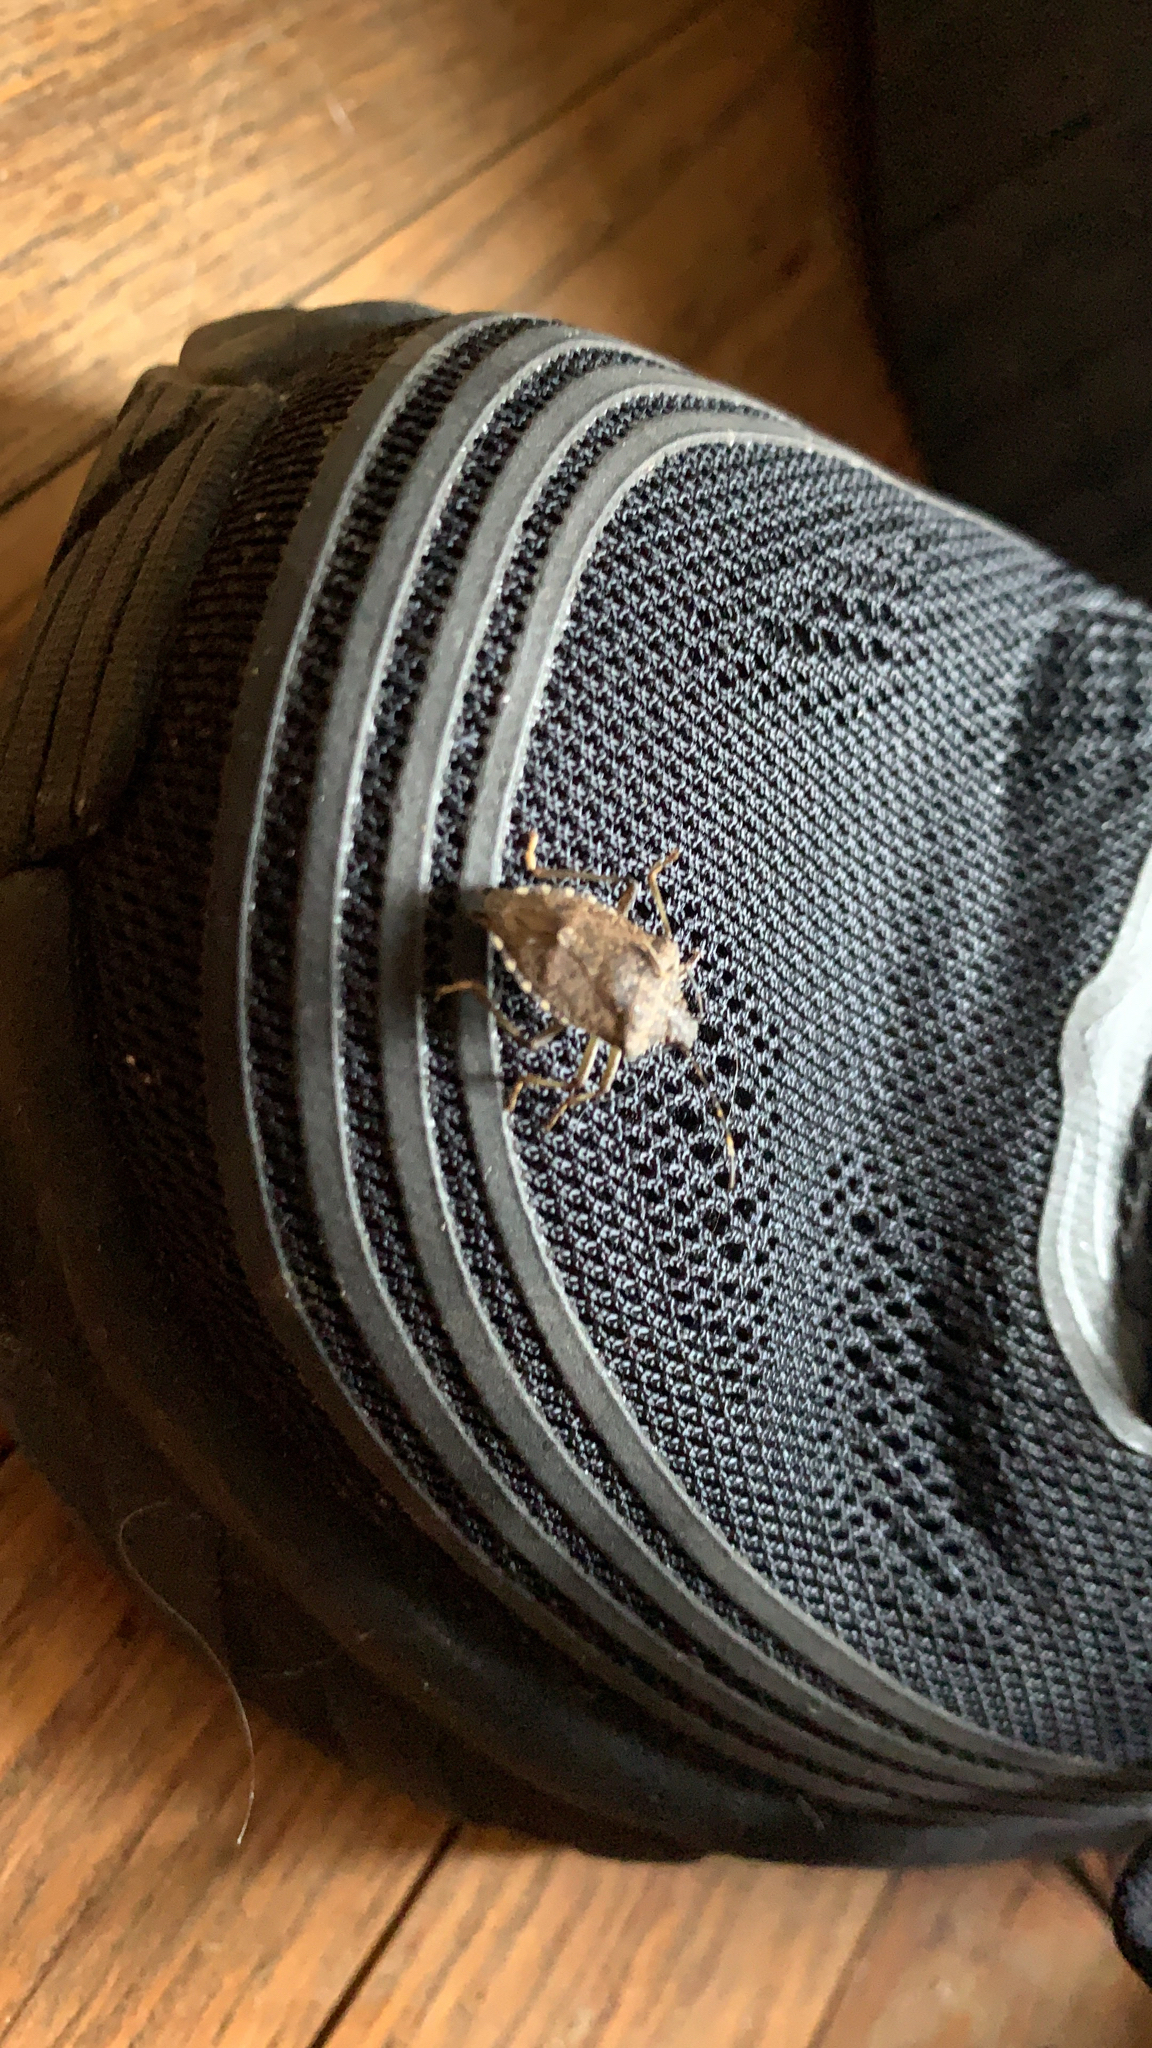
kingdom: Animalia
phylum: Arthropoda
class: Insecta
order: Hemiptera
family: Pentatomidae
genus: Halyomorpha
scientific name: Halyomorpha halys
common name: Brown marmorated stink bug
